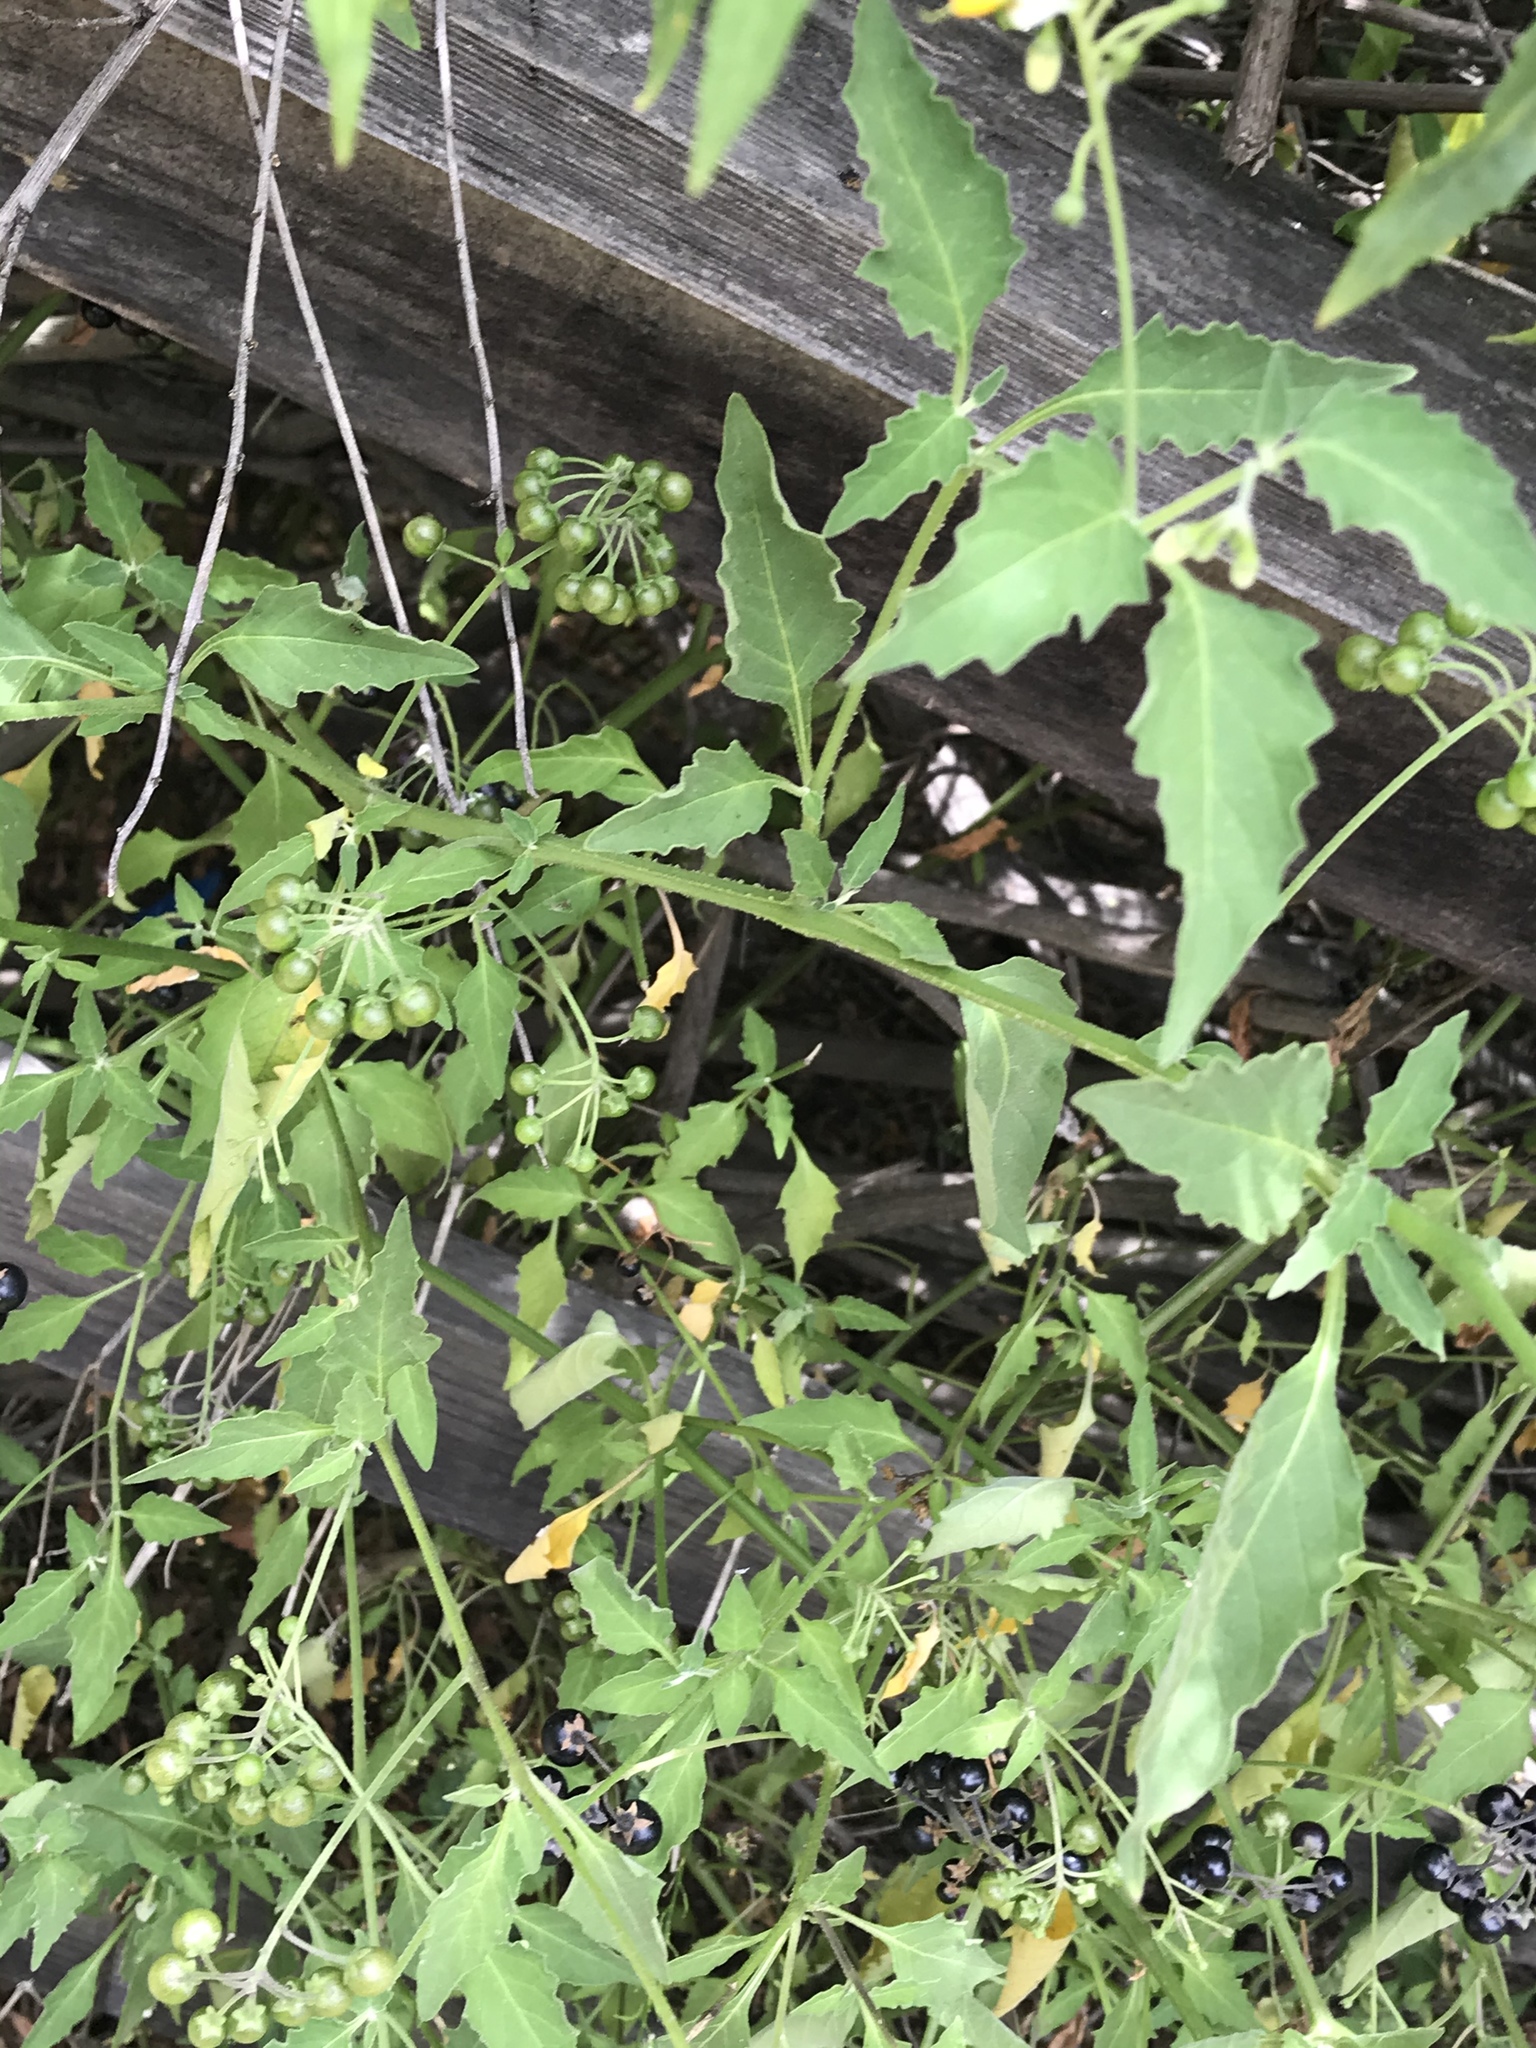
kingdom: Plantae
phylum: Tracheophyta
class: Magnoliopsida
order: Solanales
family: Solanaceae
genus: Solanum
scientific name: Solanum douglasii
